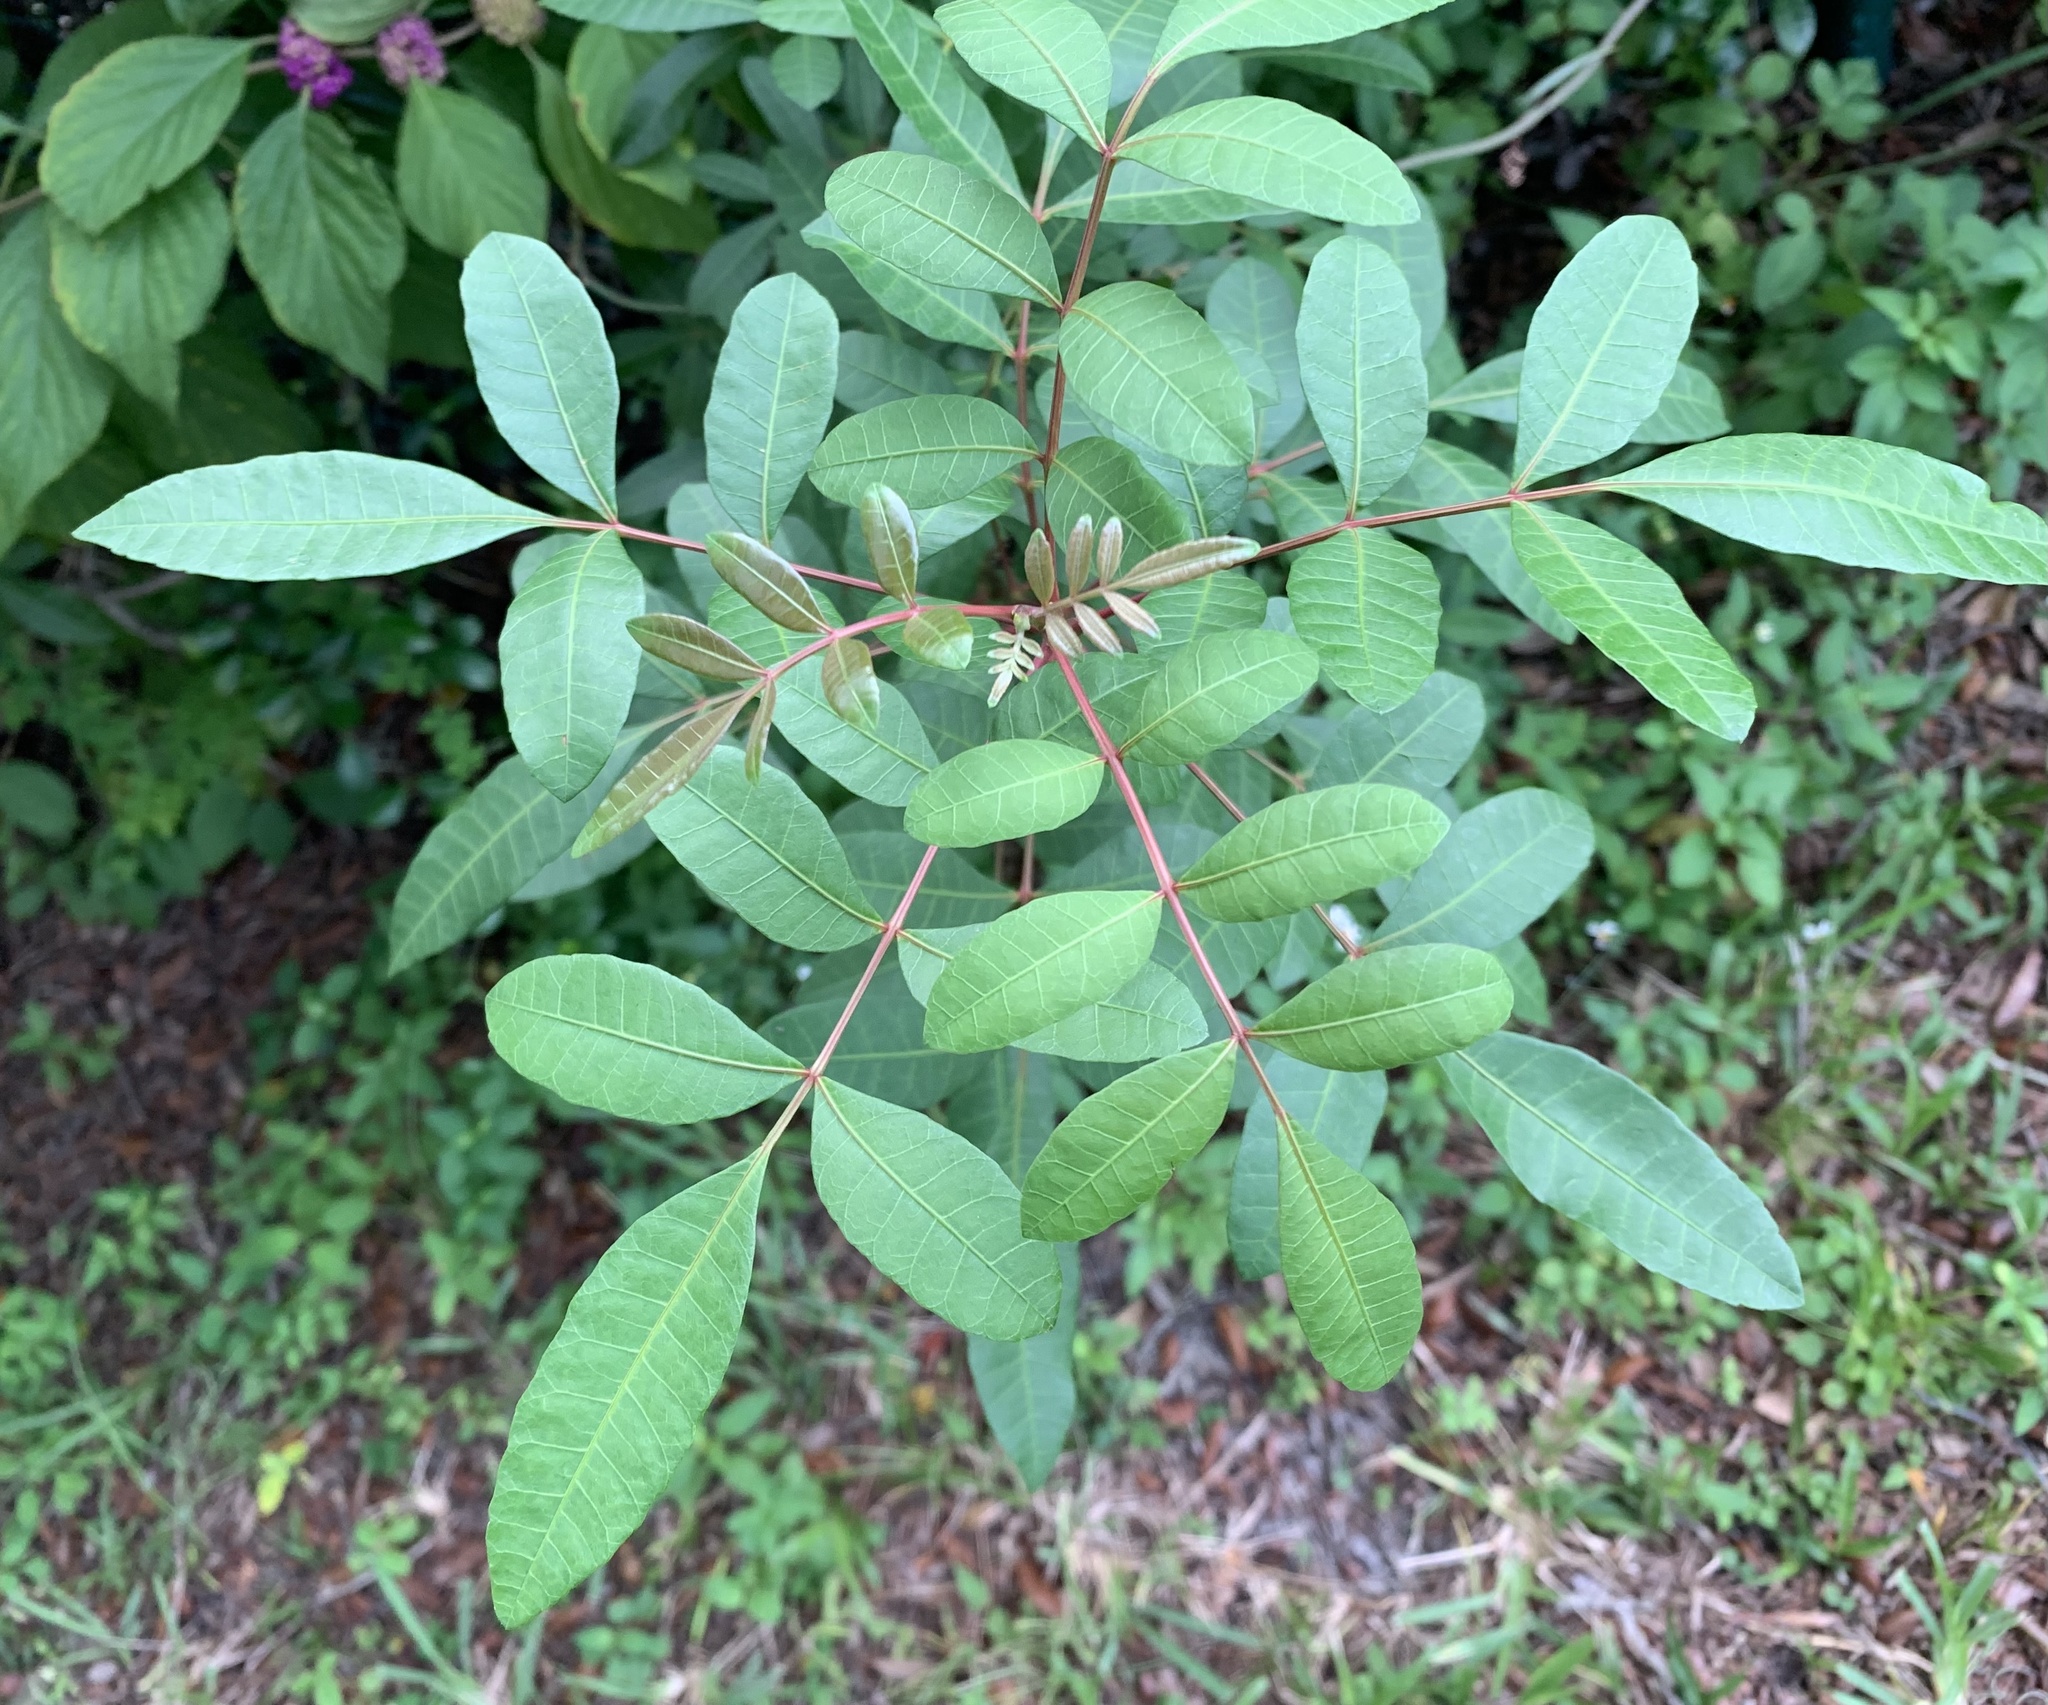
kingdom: Plantae
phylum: Tracheophyta
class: Magnoliopsida
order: Sapindales
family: Anacardiaceae
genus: Schinus
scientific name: Schinus terebinthifolia
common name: Brazilian peppertree
